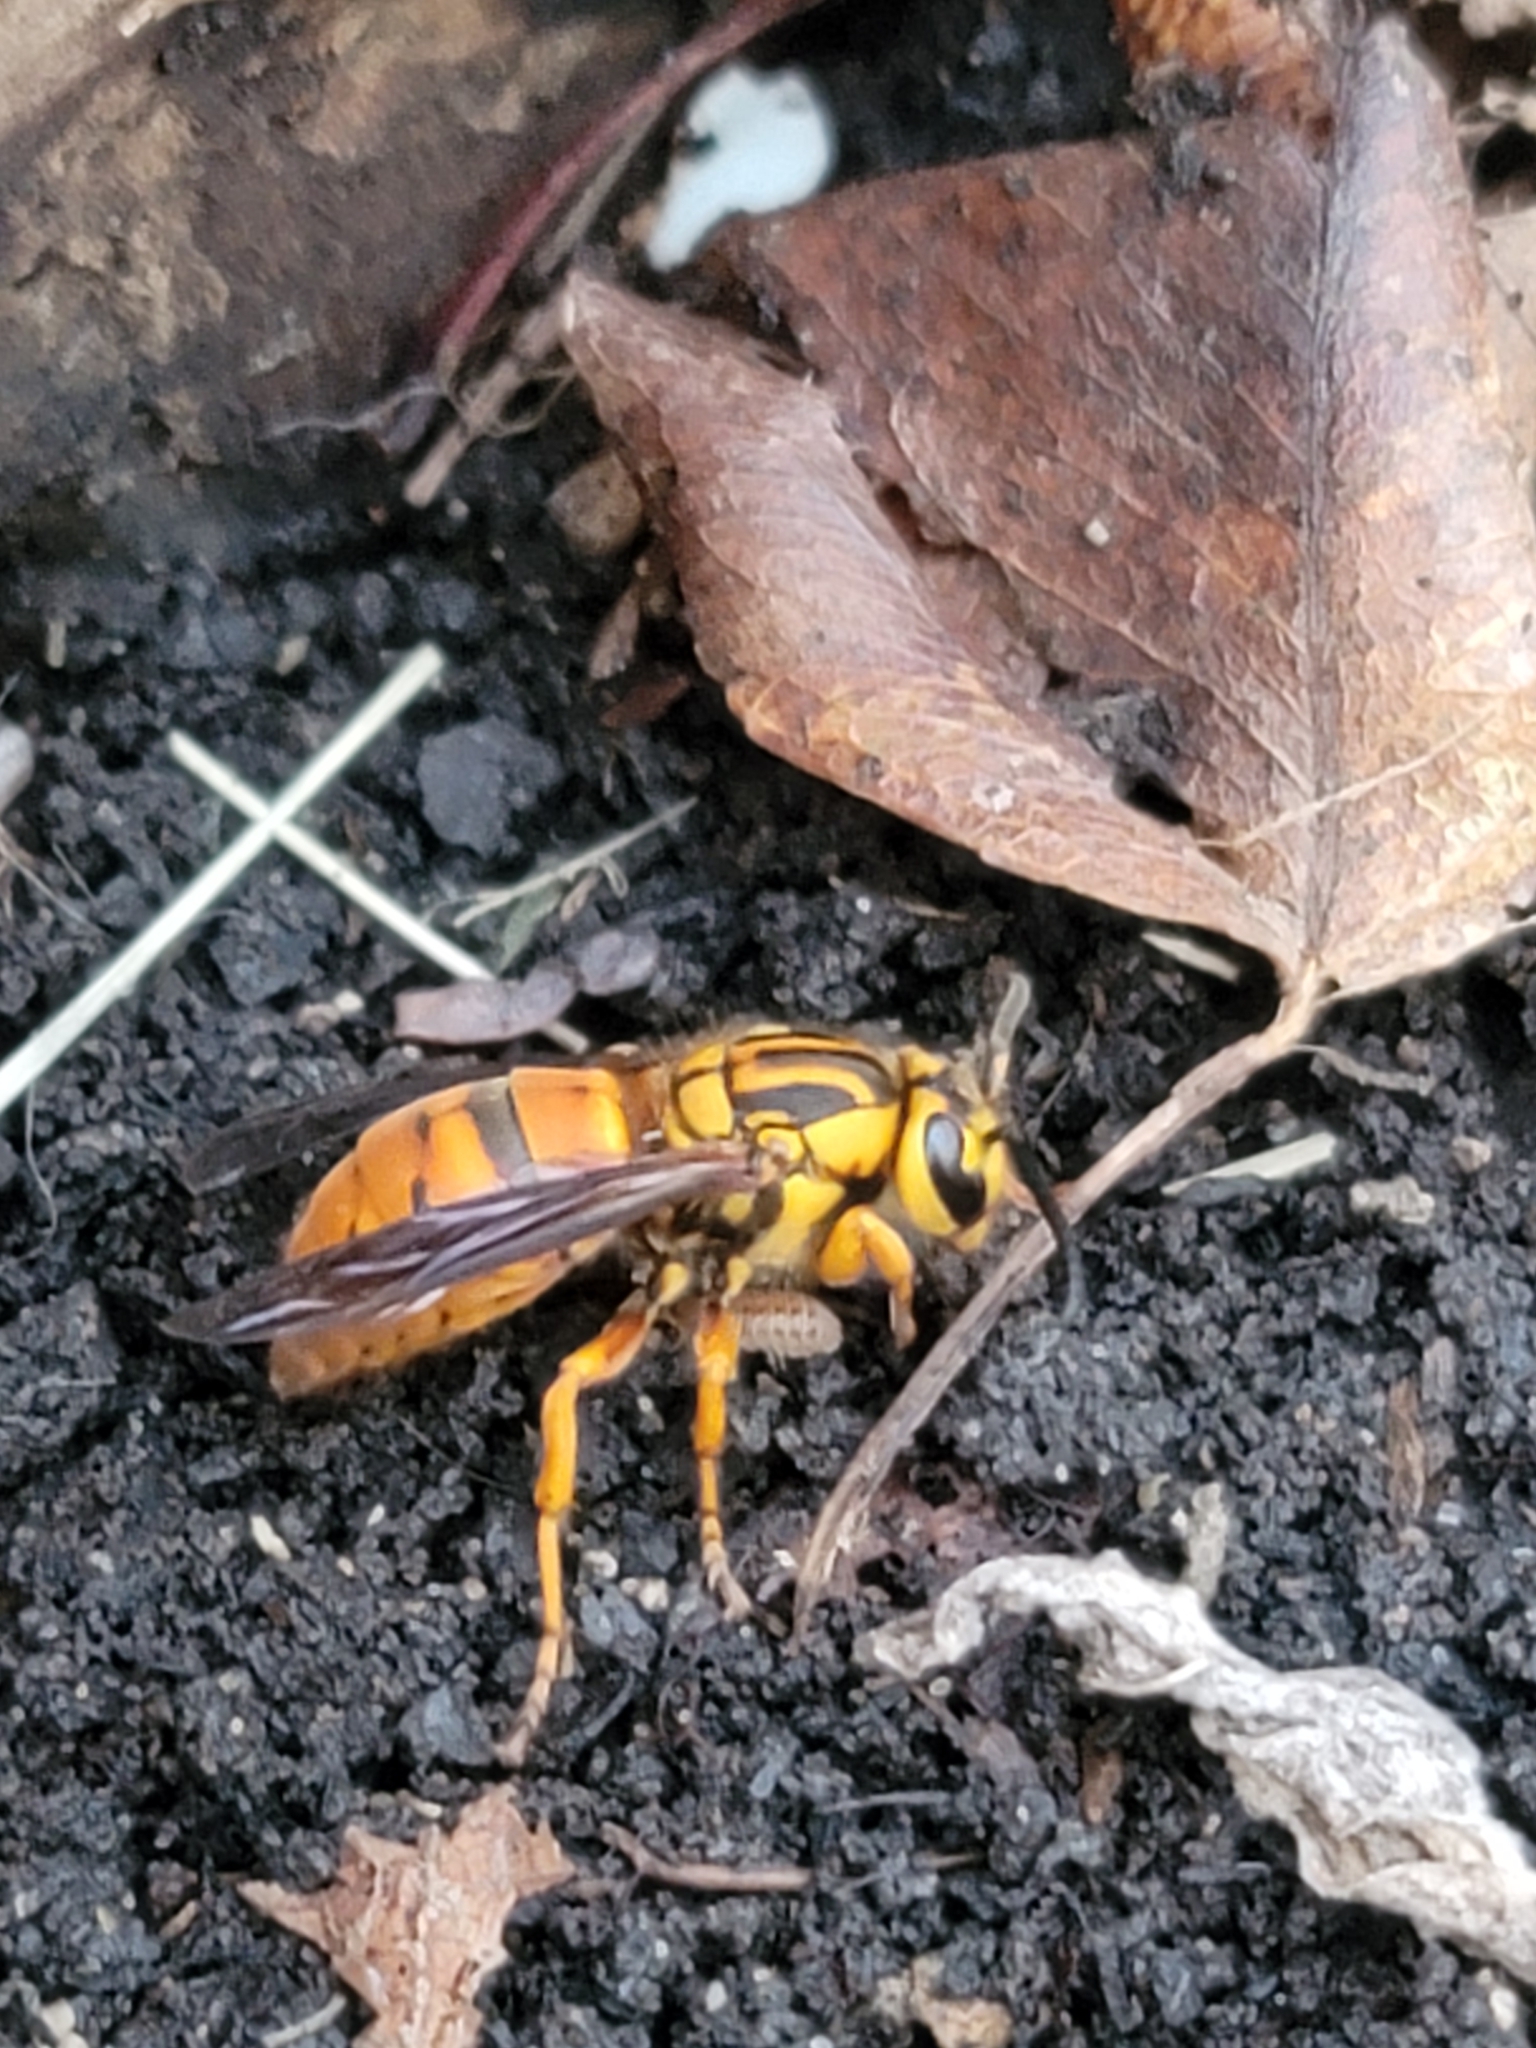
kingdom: Animalia
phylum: Arthropoda
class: Insecta
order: Hymenoptera
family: Vespidae
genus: Vespula
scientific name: Vespula squamosa
